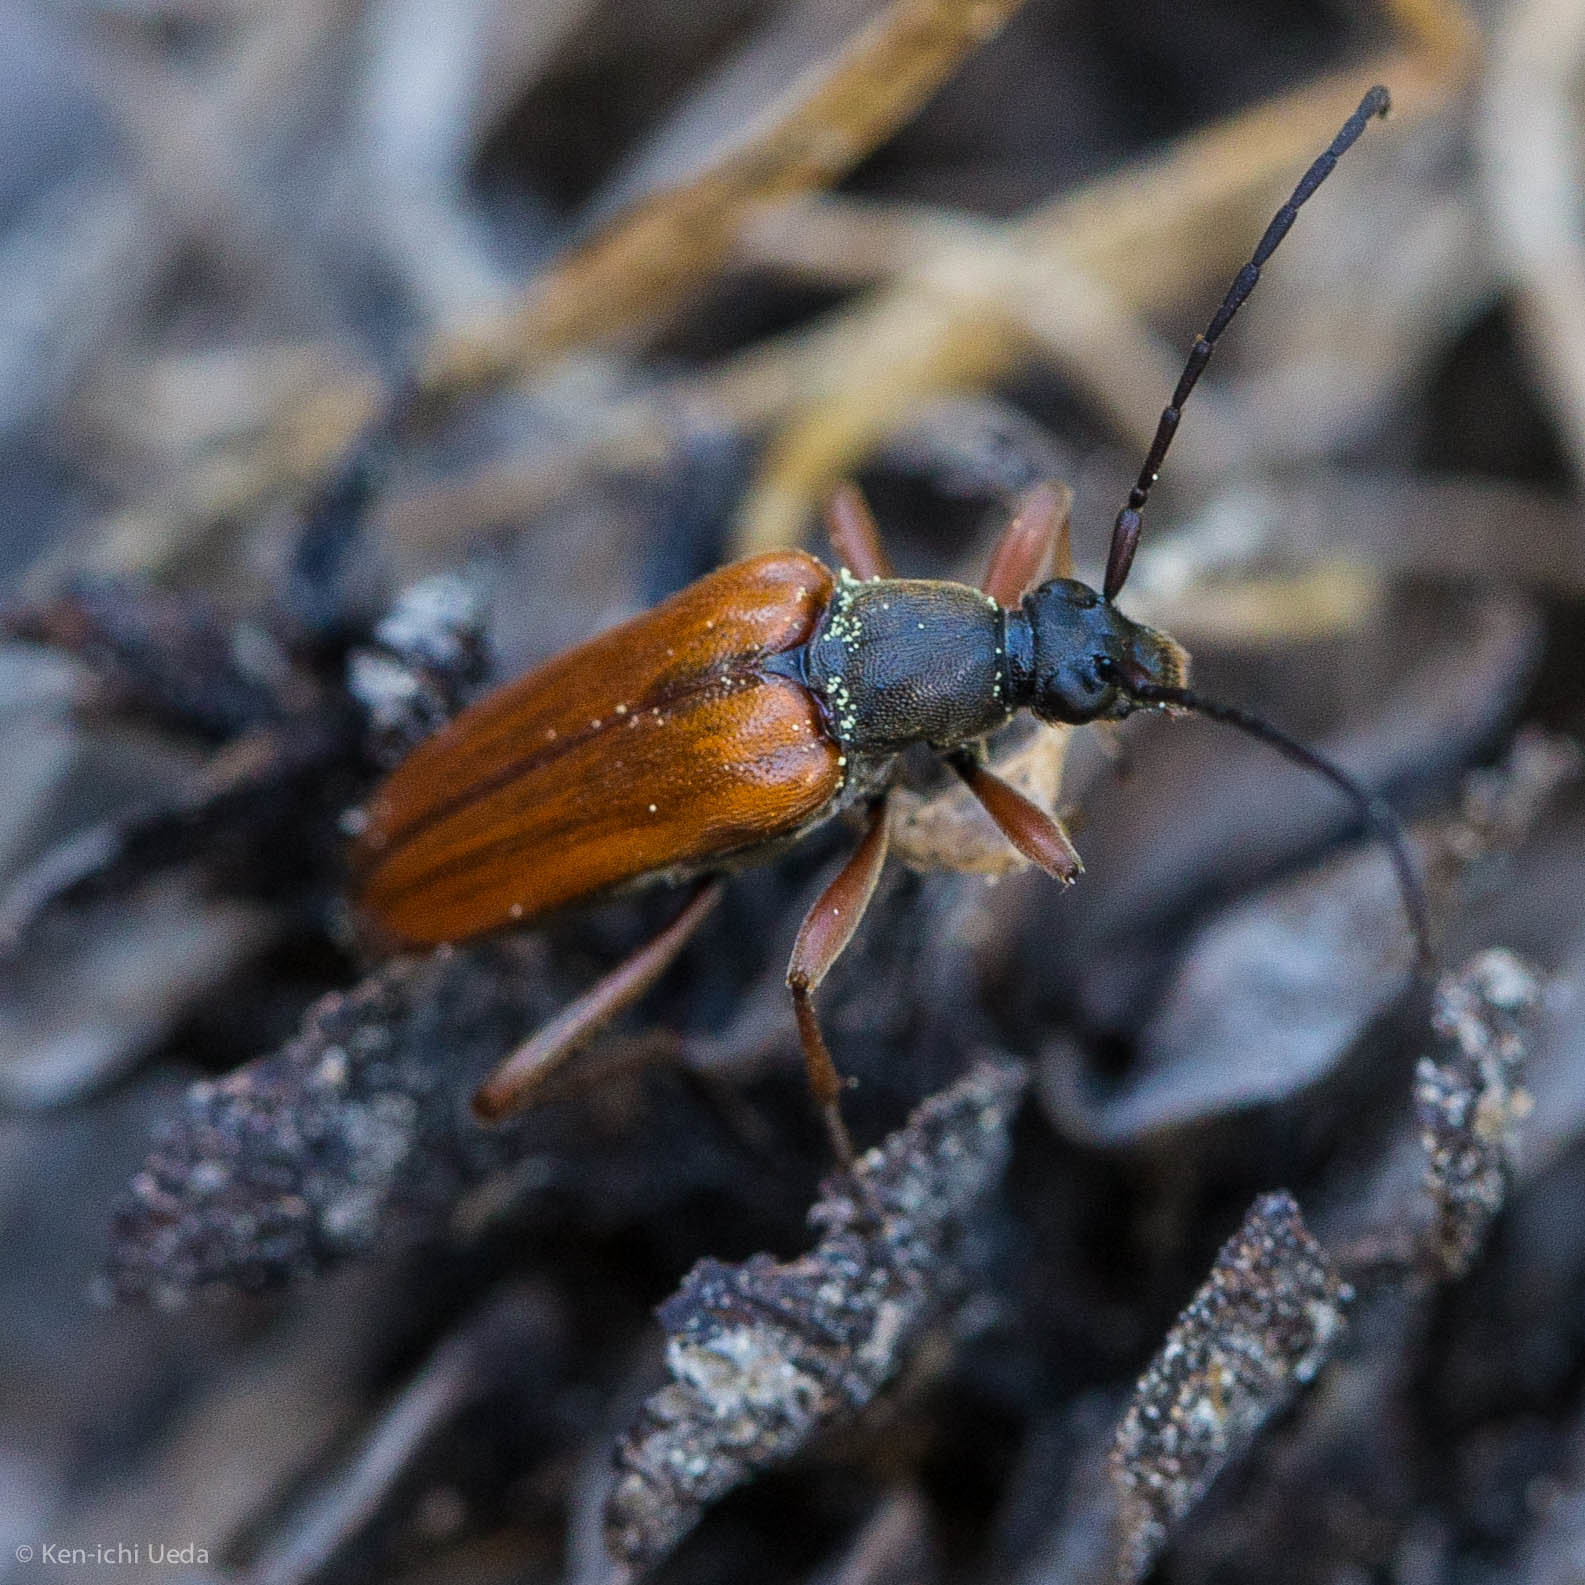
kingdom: Animalia
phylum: Arthropoda
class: Insecta
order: Coleoptera
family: Cerambycidae
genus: Neoalosterna
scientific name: Neoalosterna rubida
